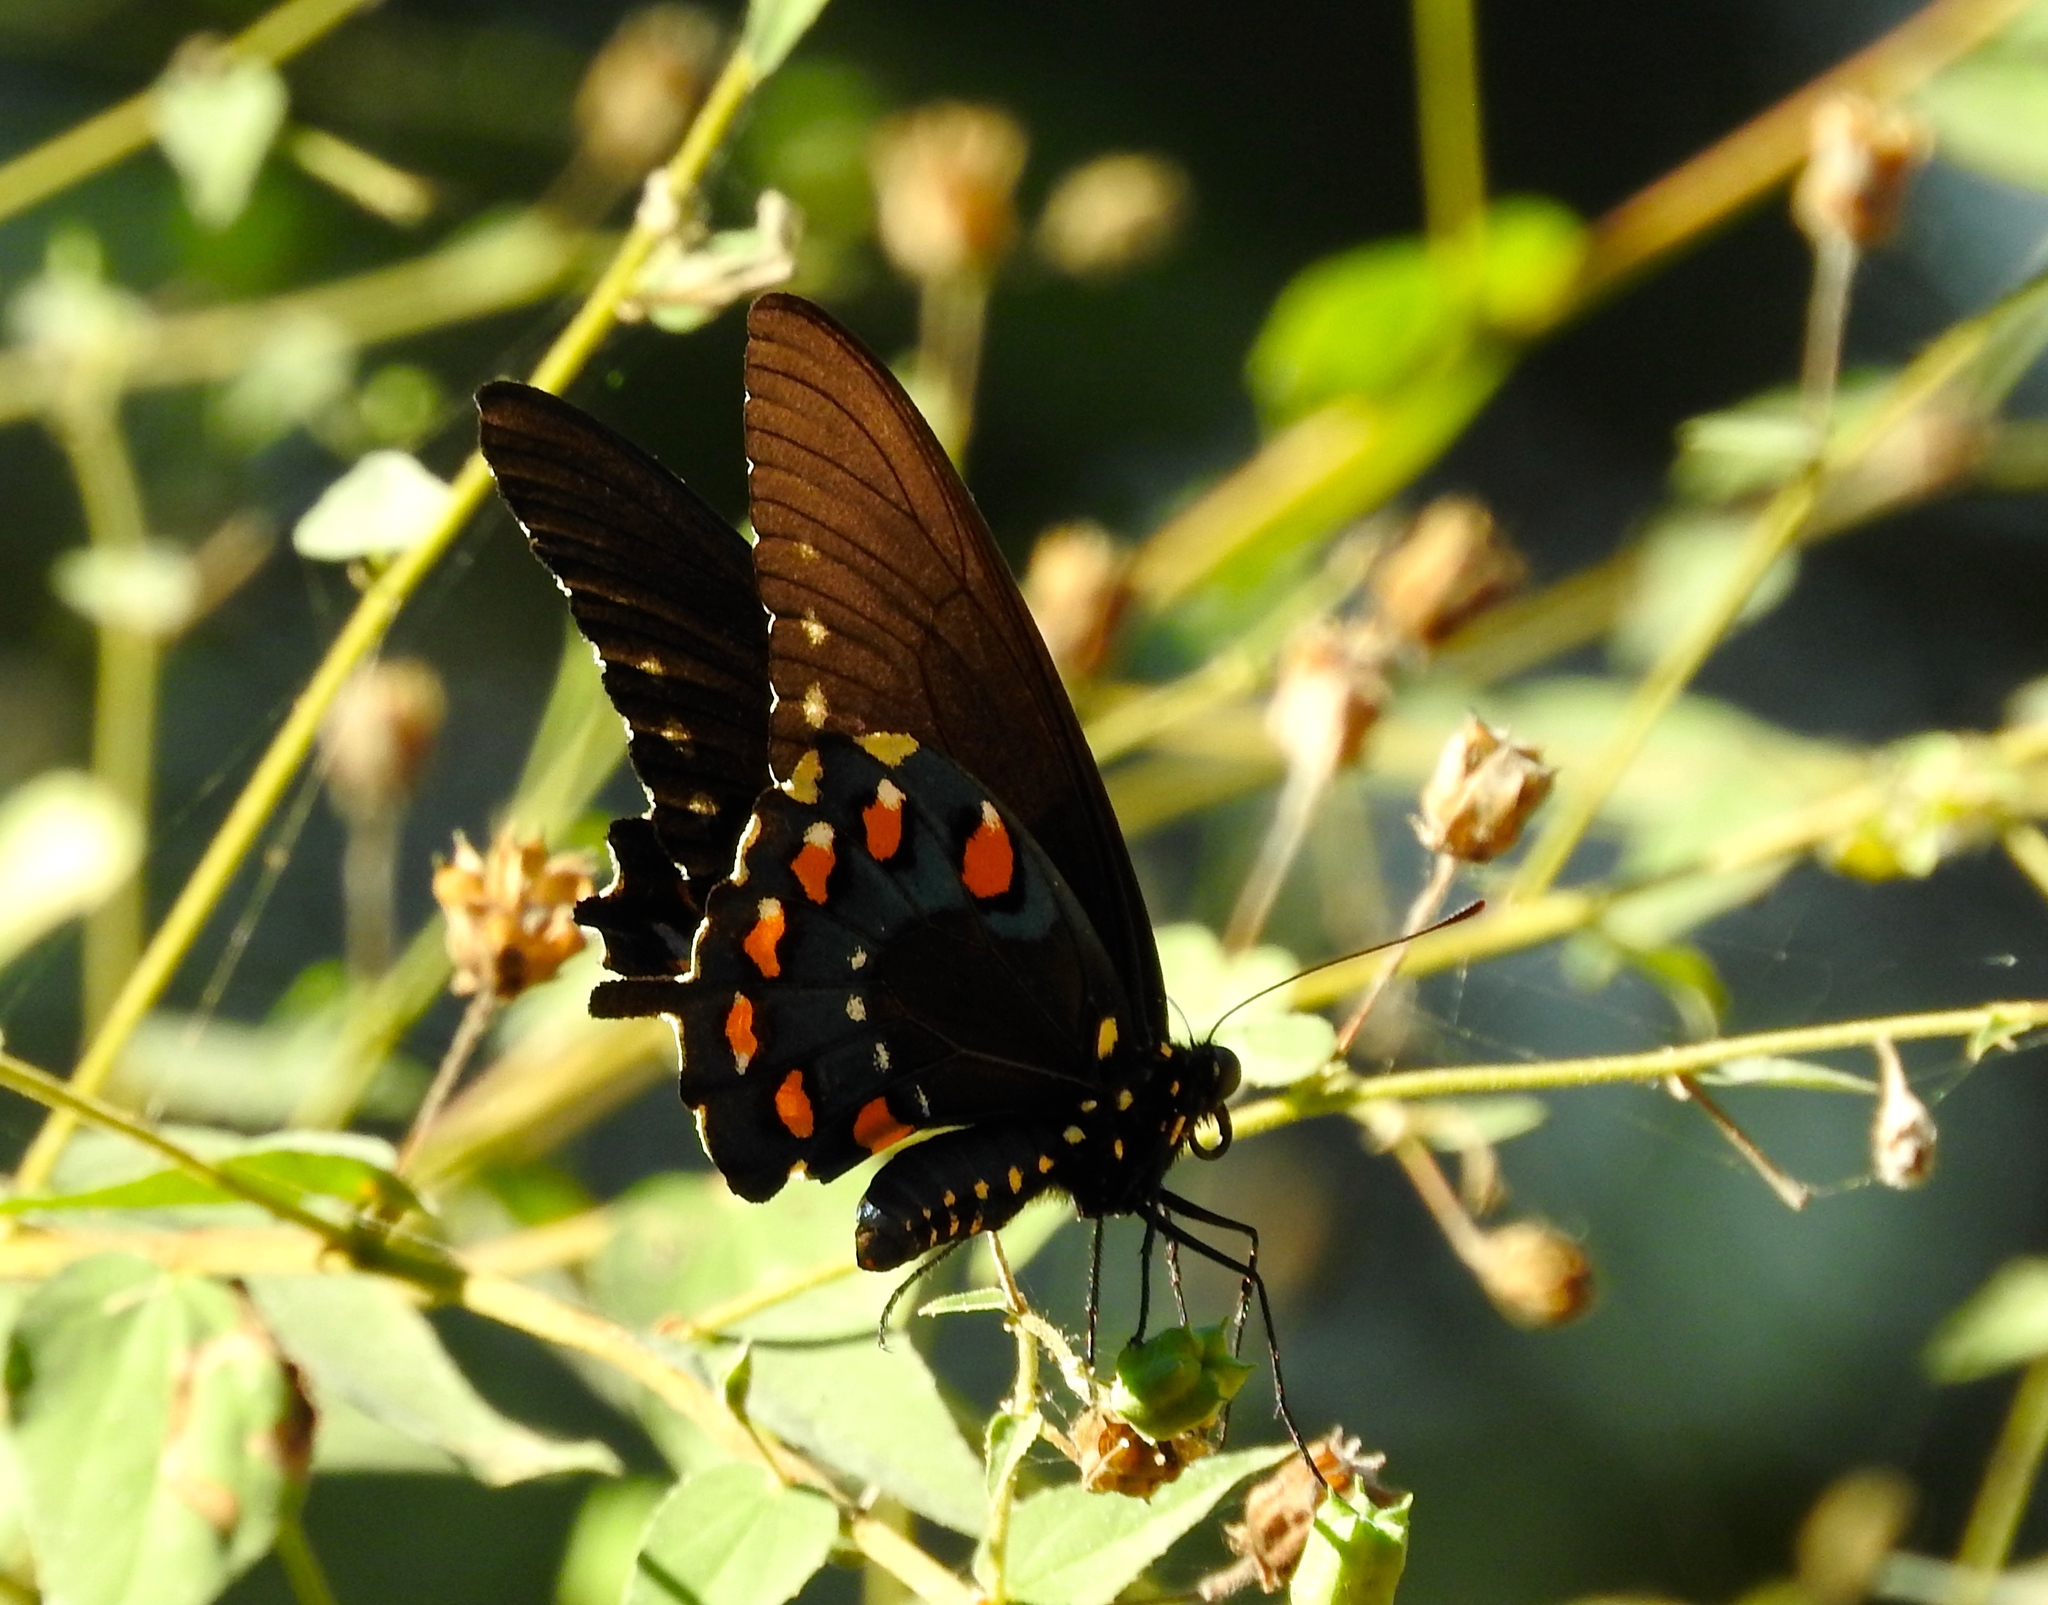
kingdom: Animalia
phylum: Arthropoda
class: Insecta
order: Lepidoptera
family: Papilionidae
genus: Battus
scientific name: Battus philenor
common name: Pipevine swallowtail
